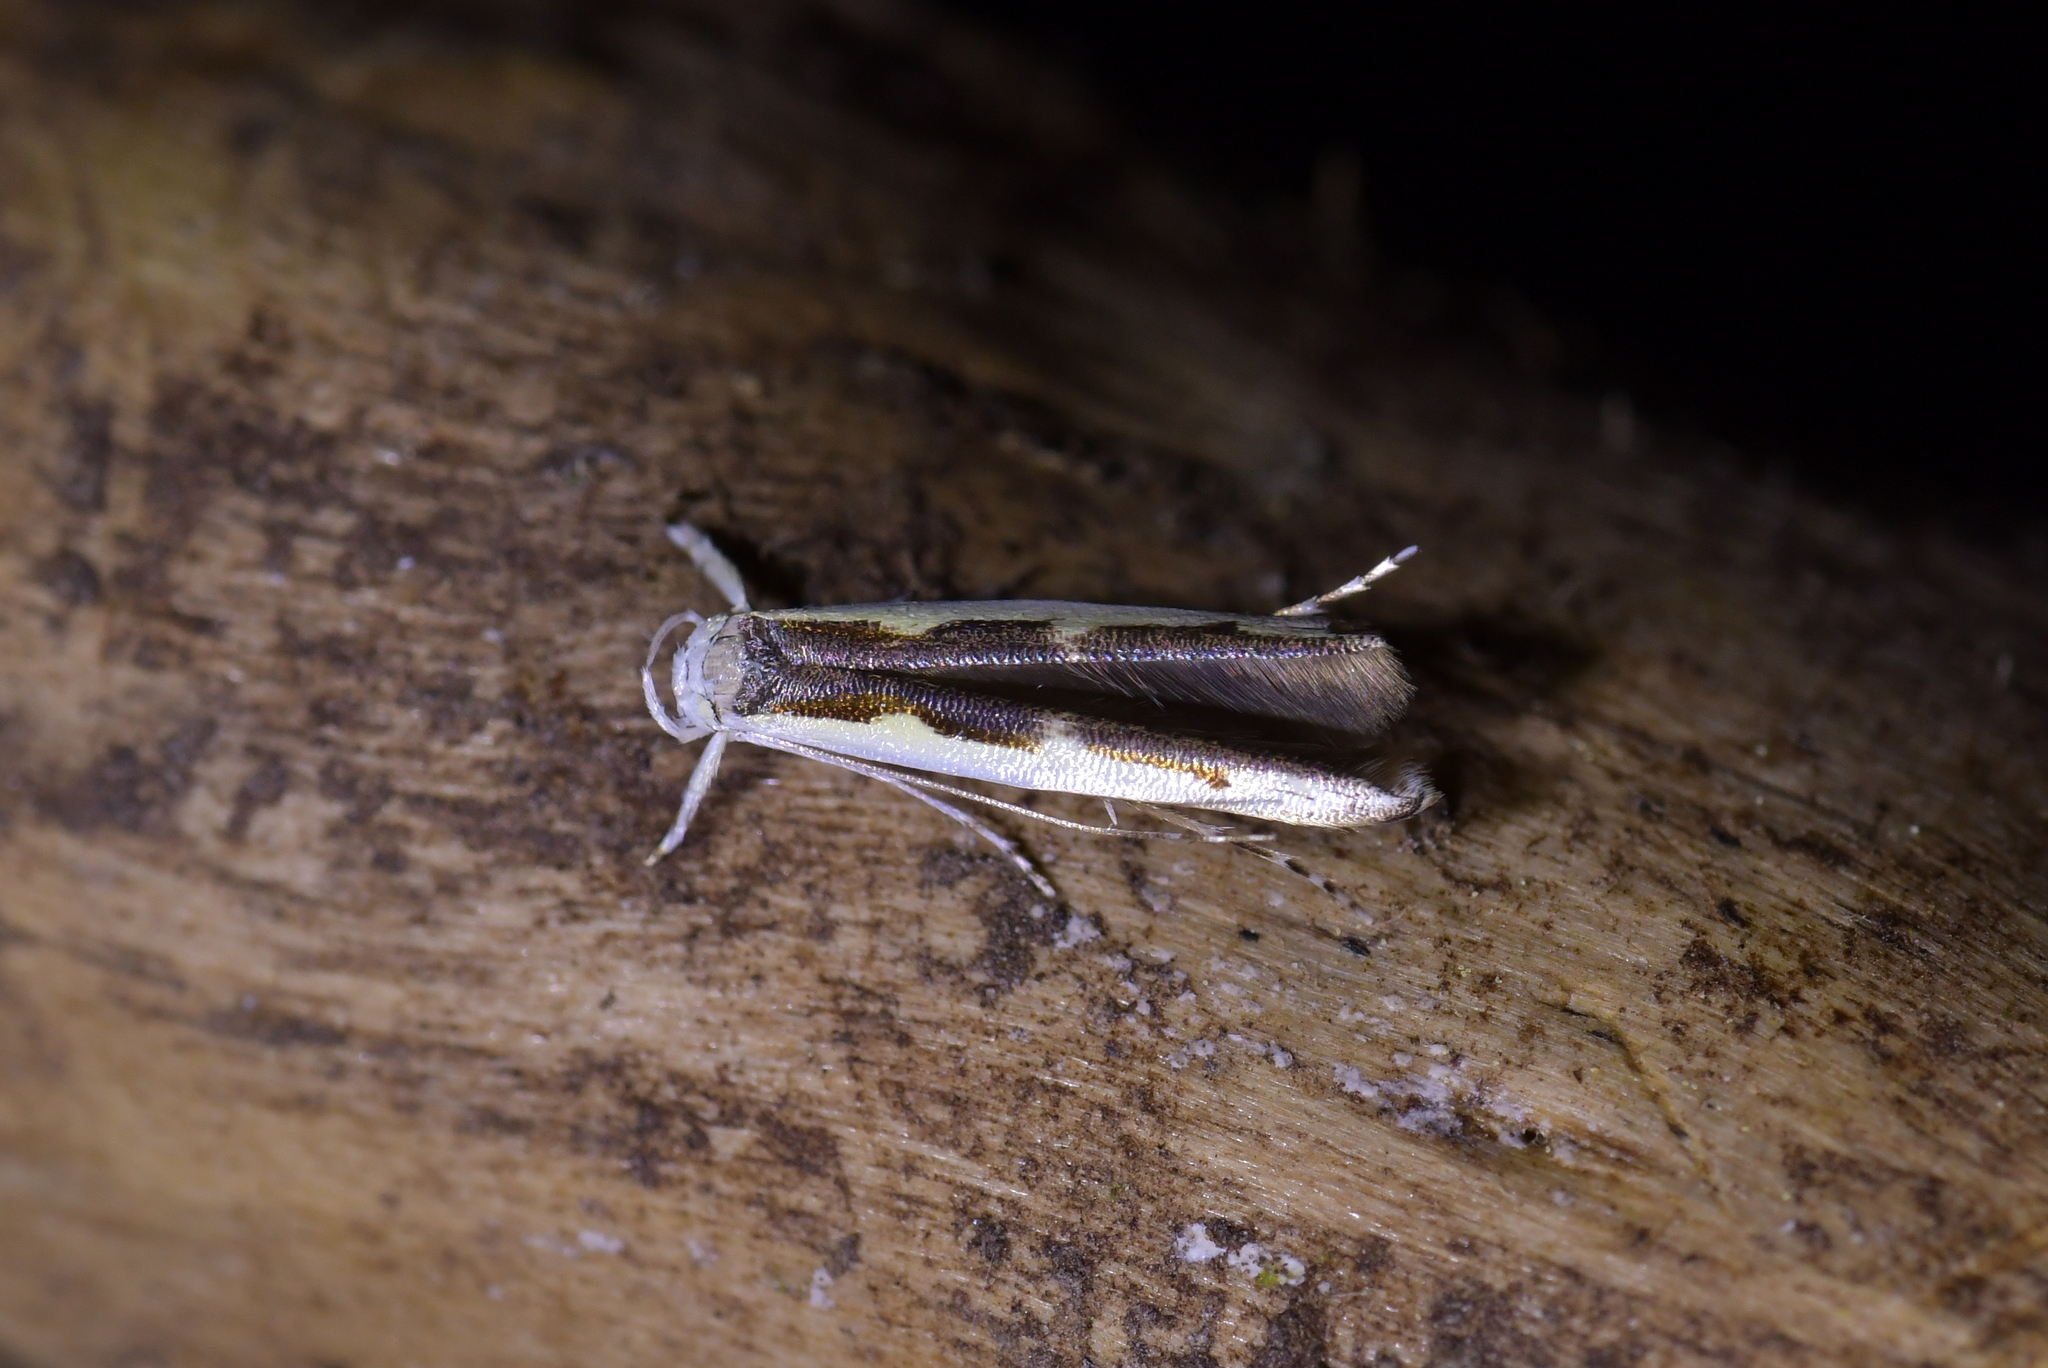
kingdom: Animalia
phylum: Arthropoda
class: Insecta
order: Lepidoptera
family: Roeslerstammiidae
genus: Vanicela
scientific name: Vanicela disjunctella
